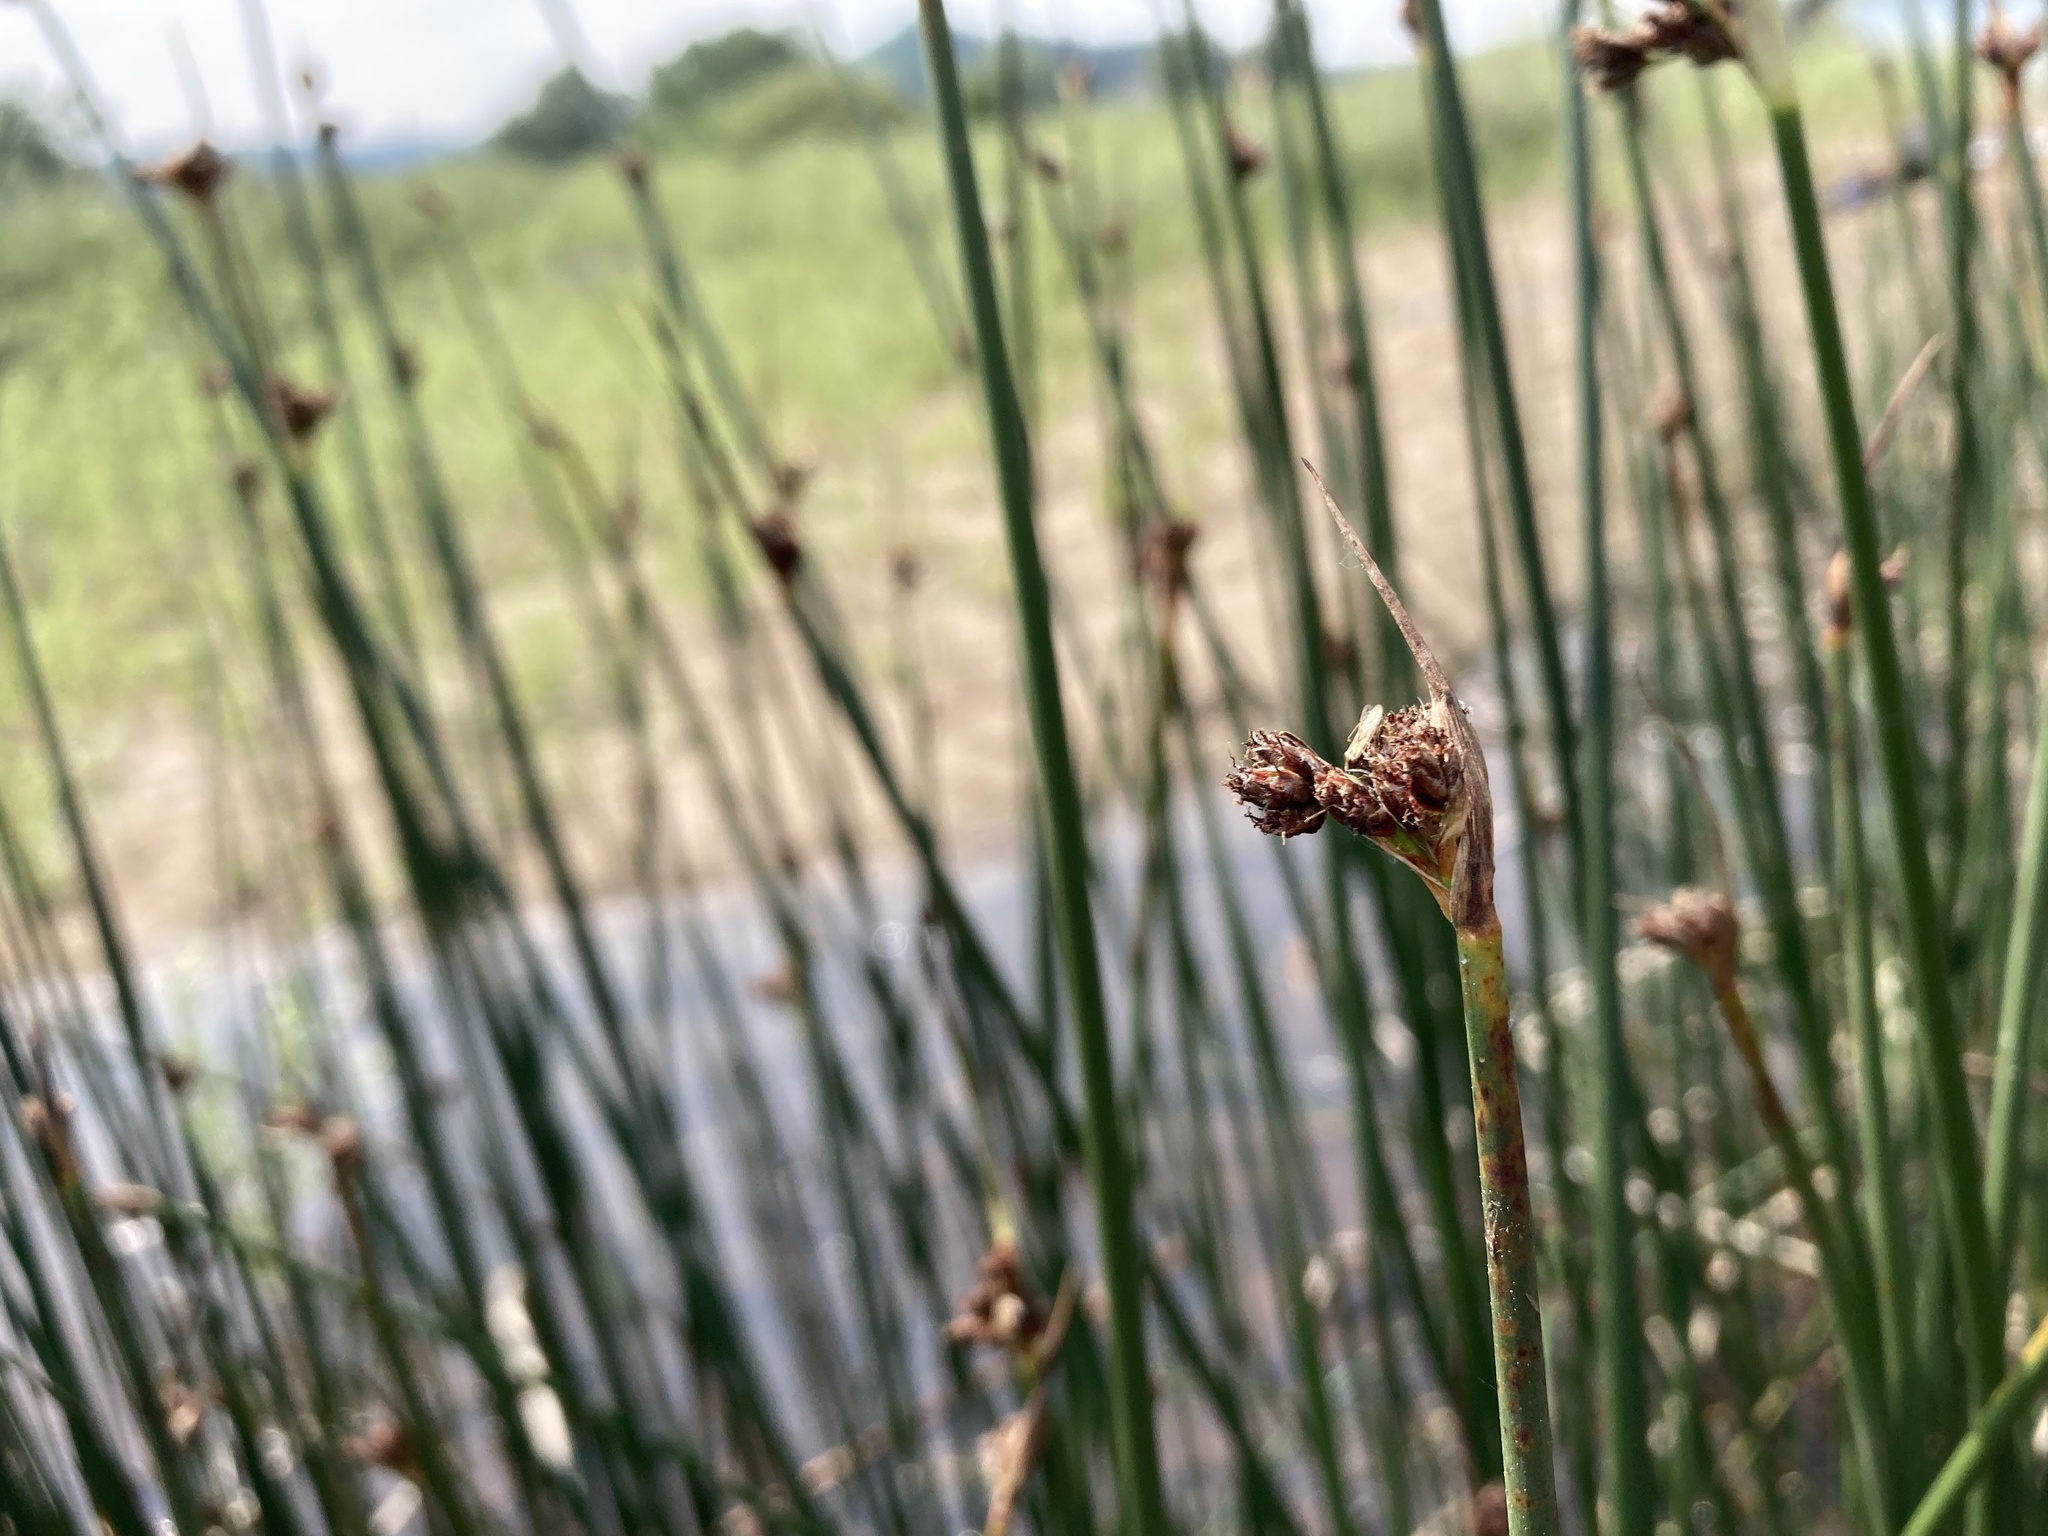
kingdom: Plantae
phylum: Tracheophyta
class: Liliopsida
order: Poales
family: Cyperaceae
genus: Schoenoplectus
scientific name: Schoenoplectus acutus
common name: Hardstem bulrush
